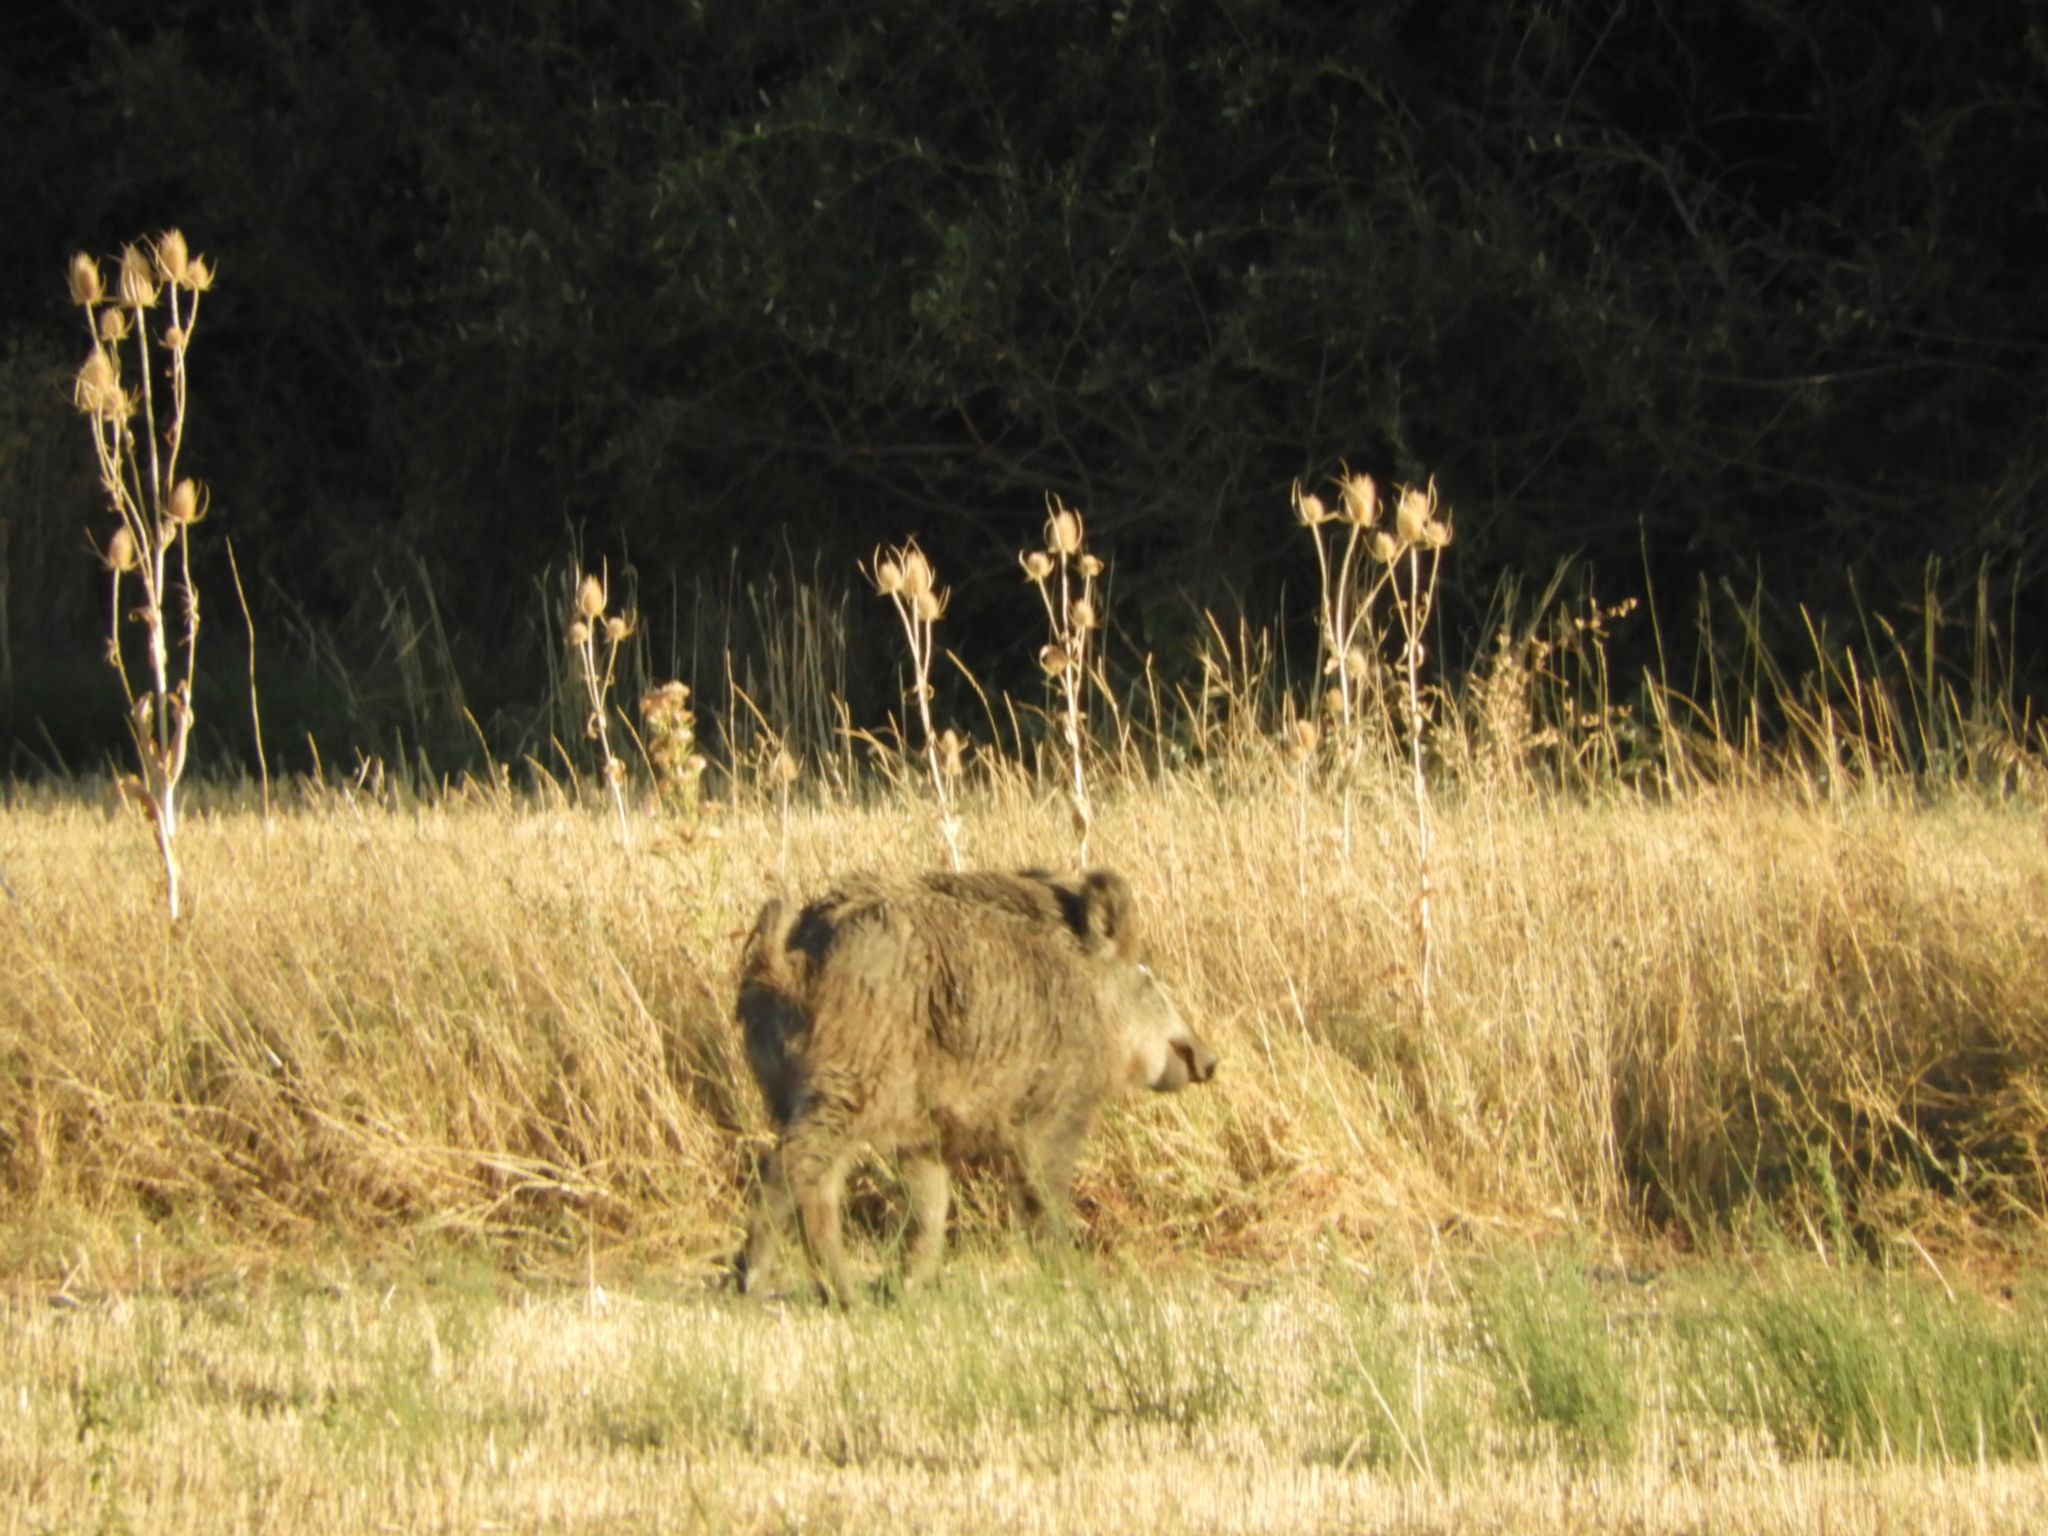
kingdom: Animalia
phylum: Chordata
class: Mammalia
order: Artiodactyla
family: Suidae
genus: Sus
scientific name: Sus scrofa
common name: Wild boar
